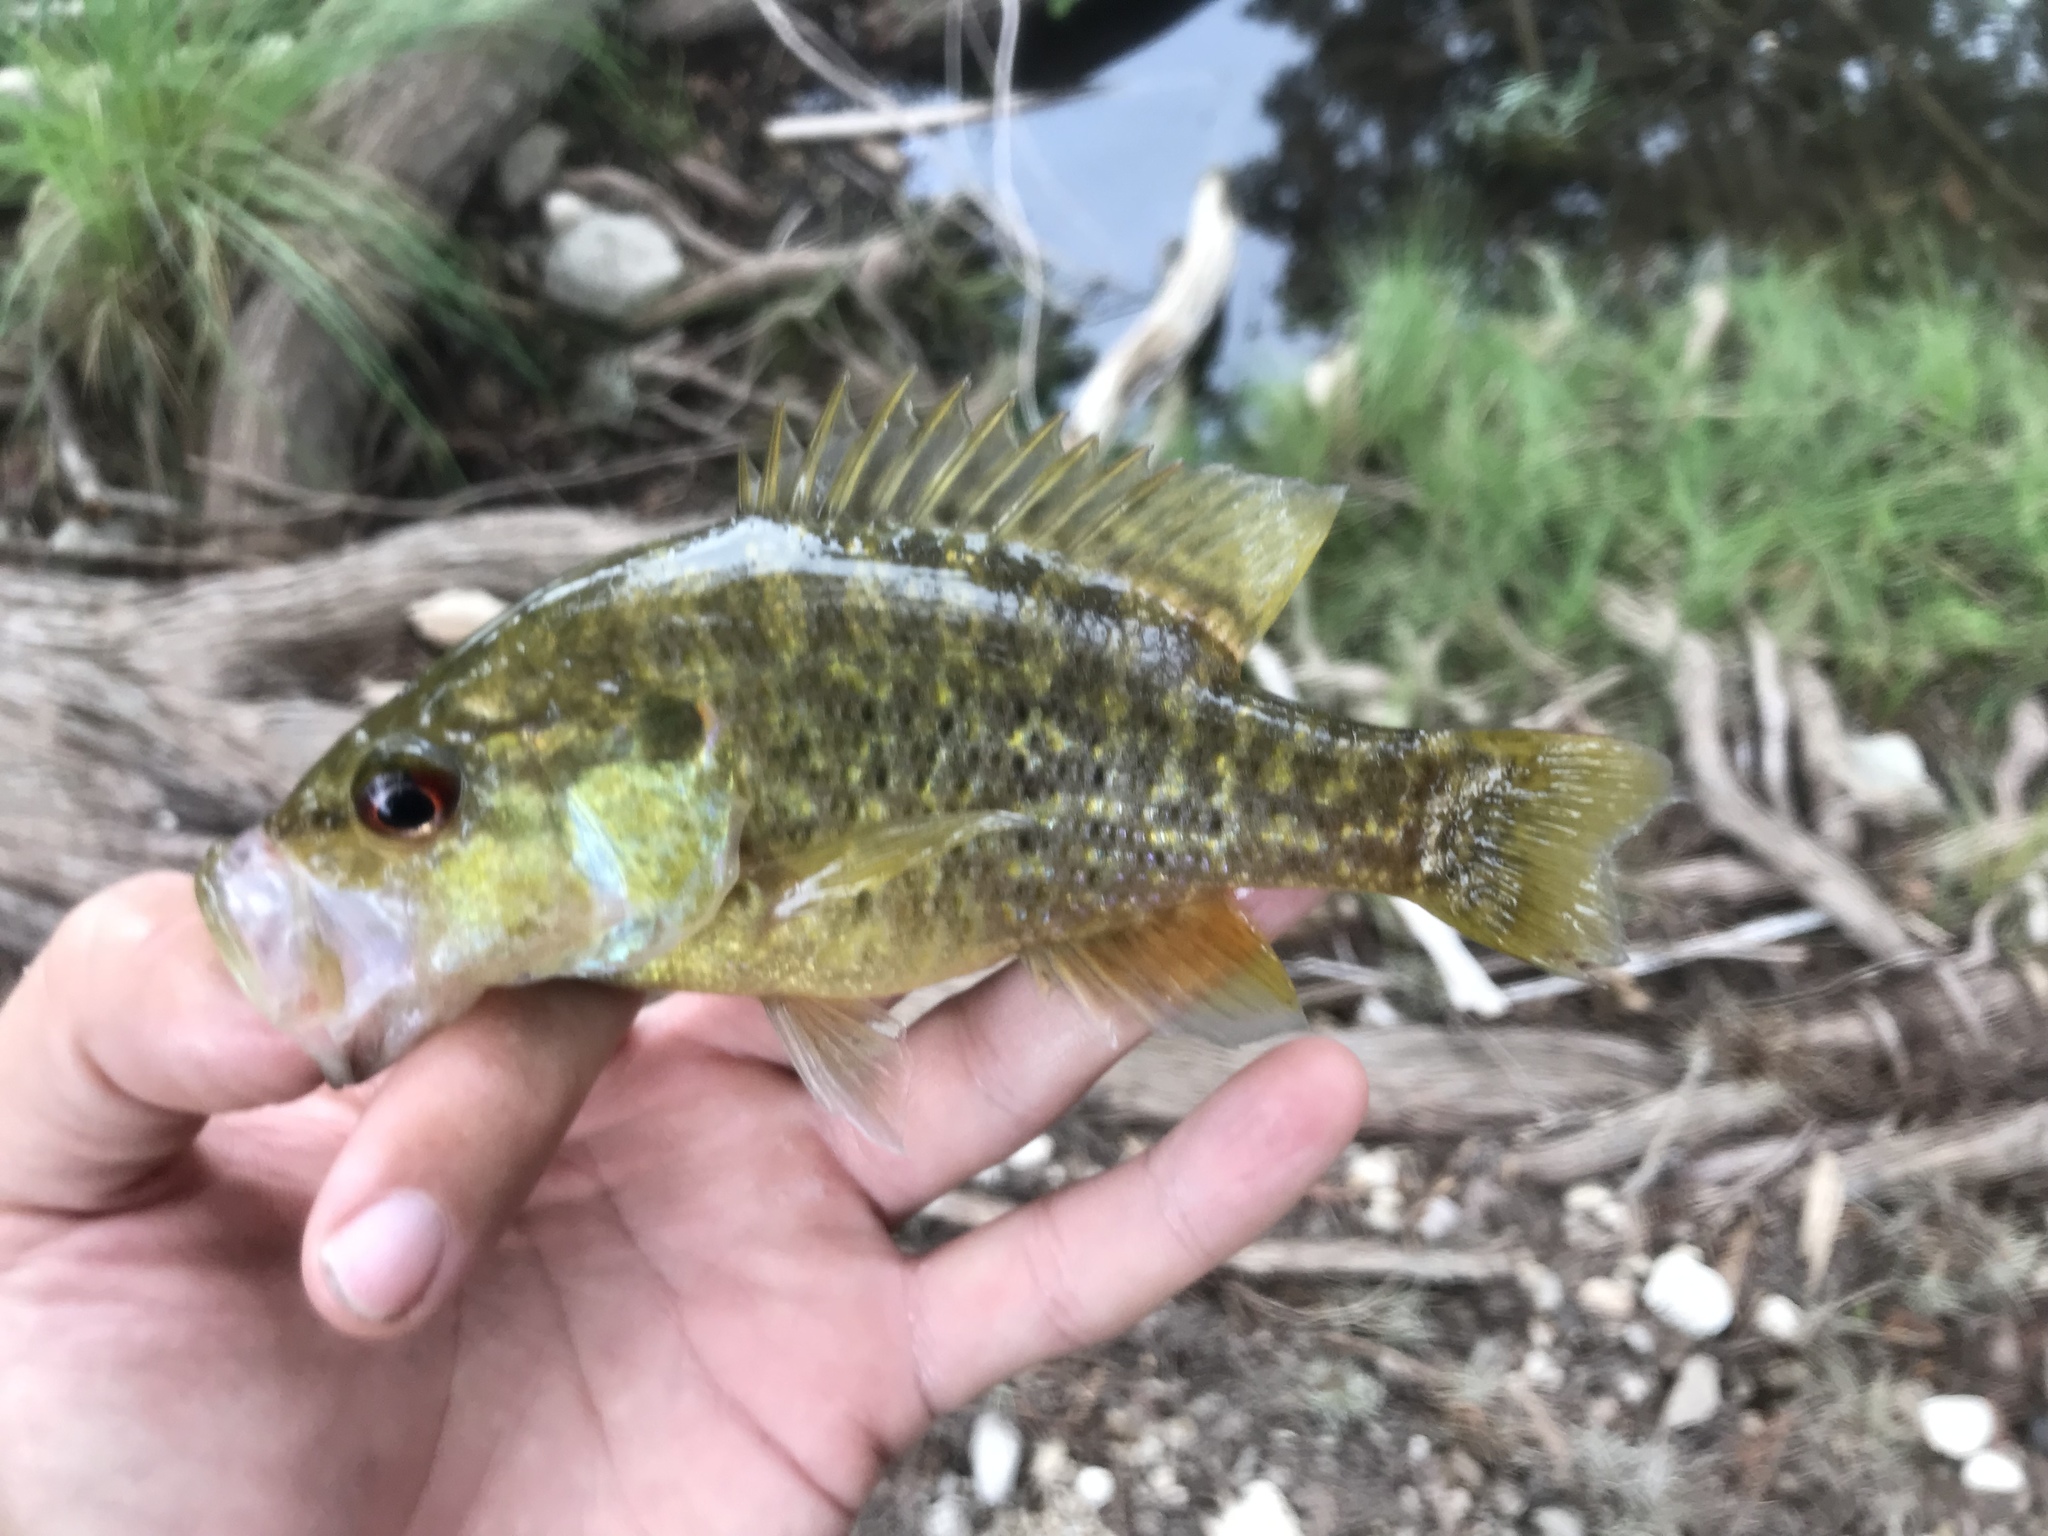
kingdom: Animalia
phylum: Chordata
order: Perciformes
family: Centrarchidae
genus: Lepomis
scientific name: Lepomis gulosus
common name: Warmouth
